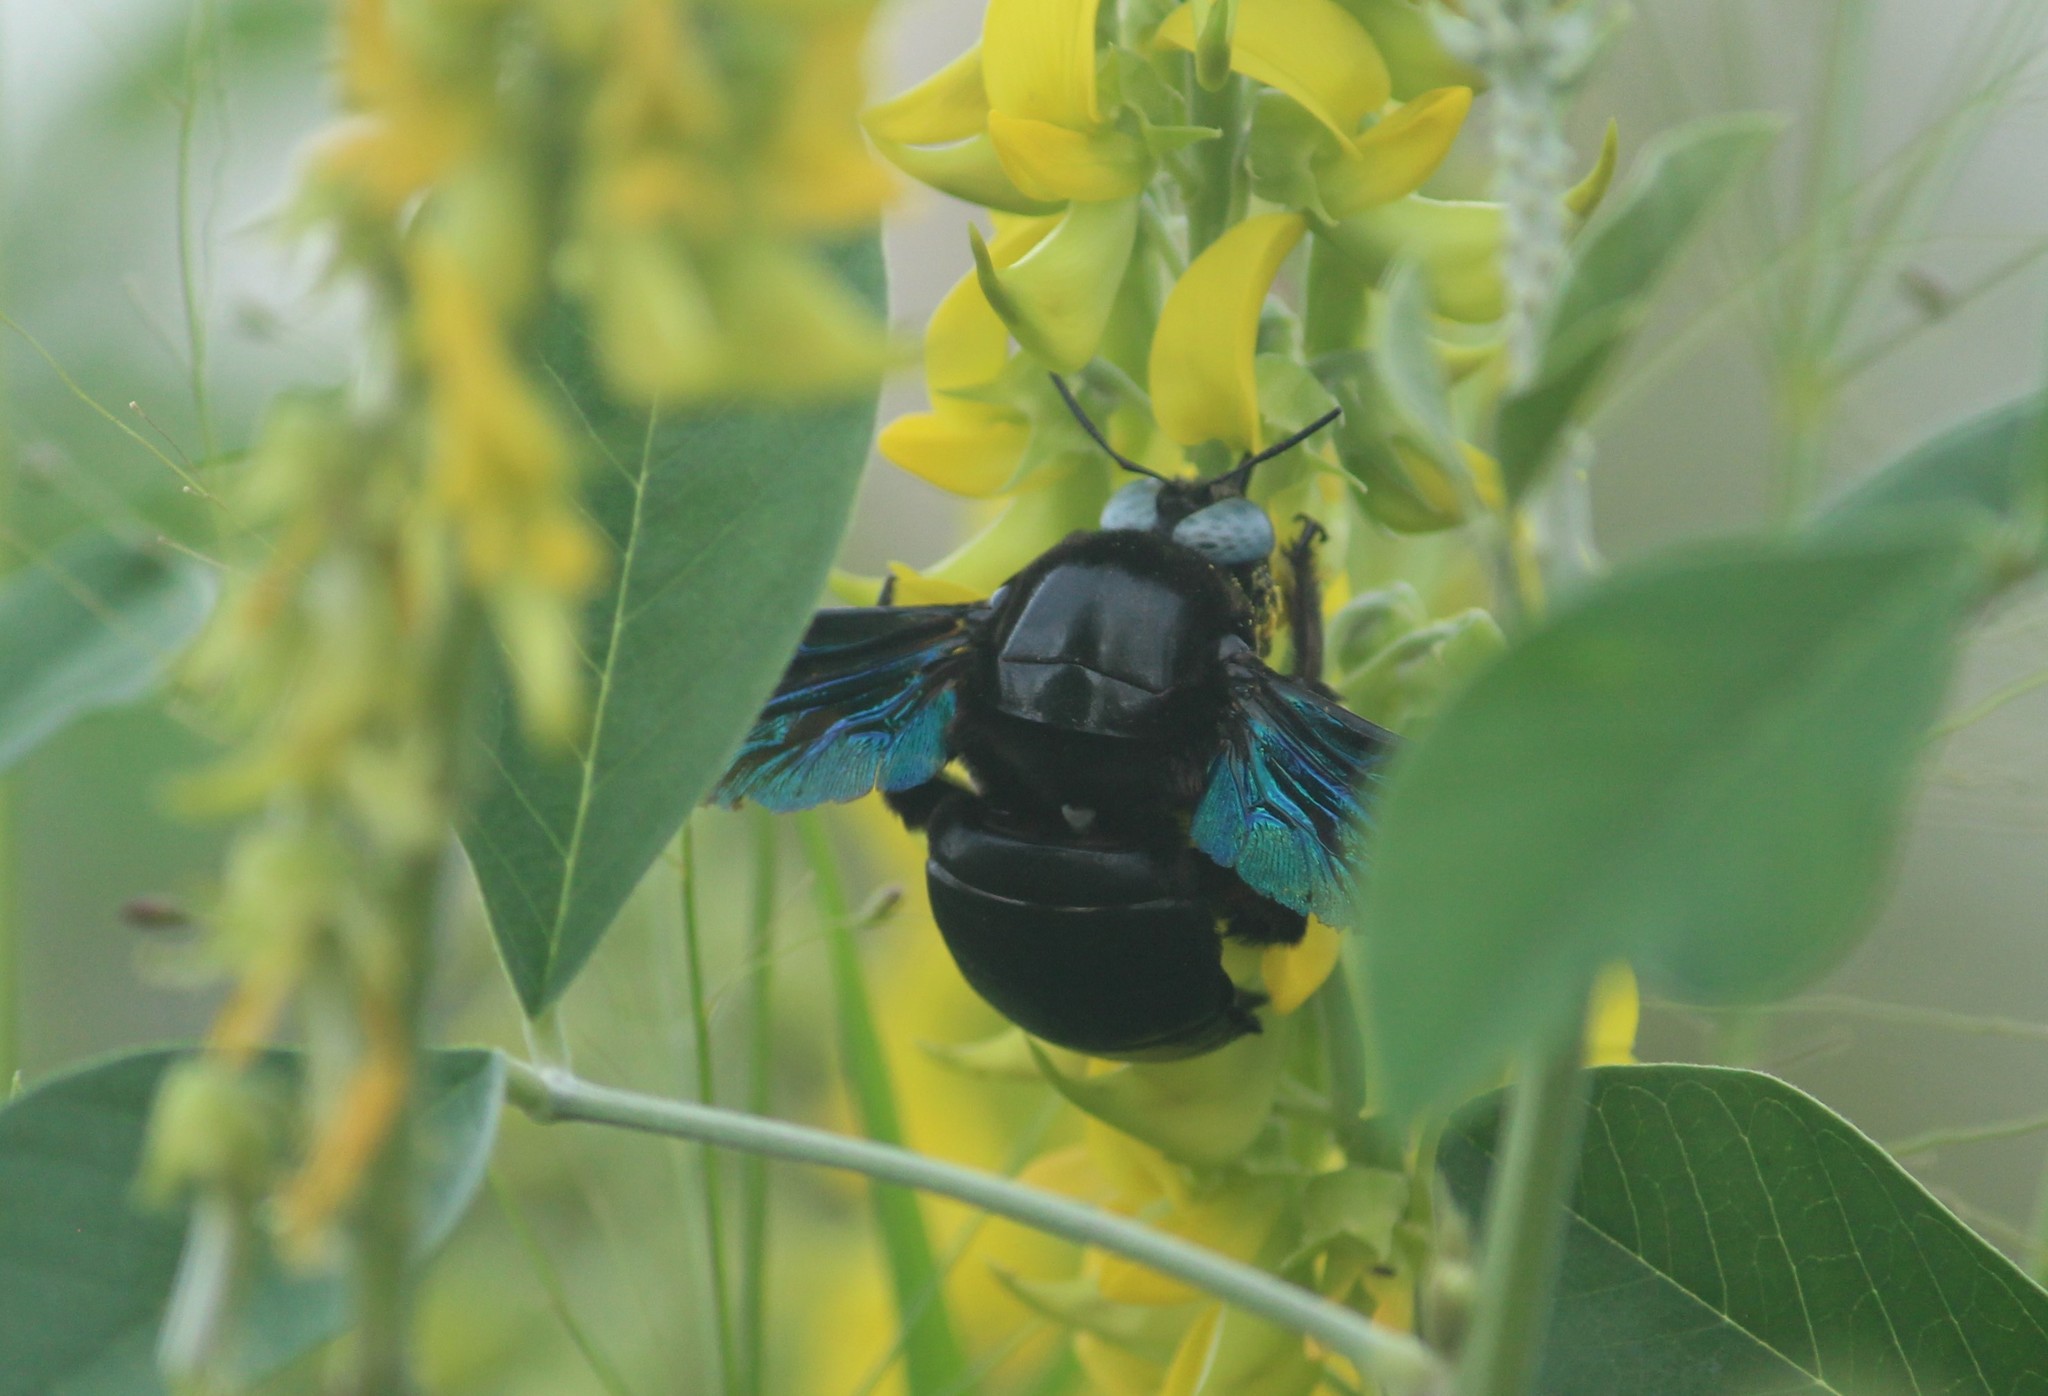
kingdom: Animalia
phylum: Arthropoda
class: Insecta
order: Hymenoptera
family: Apidae
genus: Xylocopa
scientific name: Xylocopa tenuiscapa
